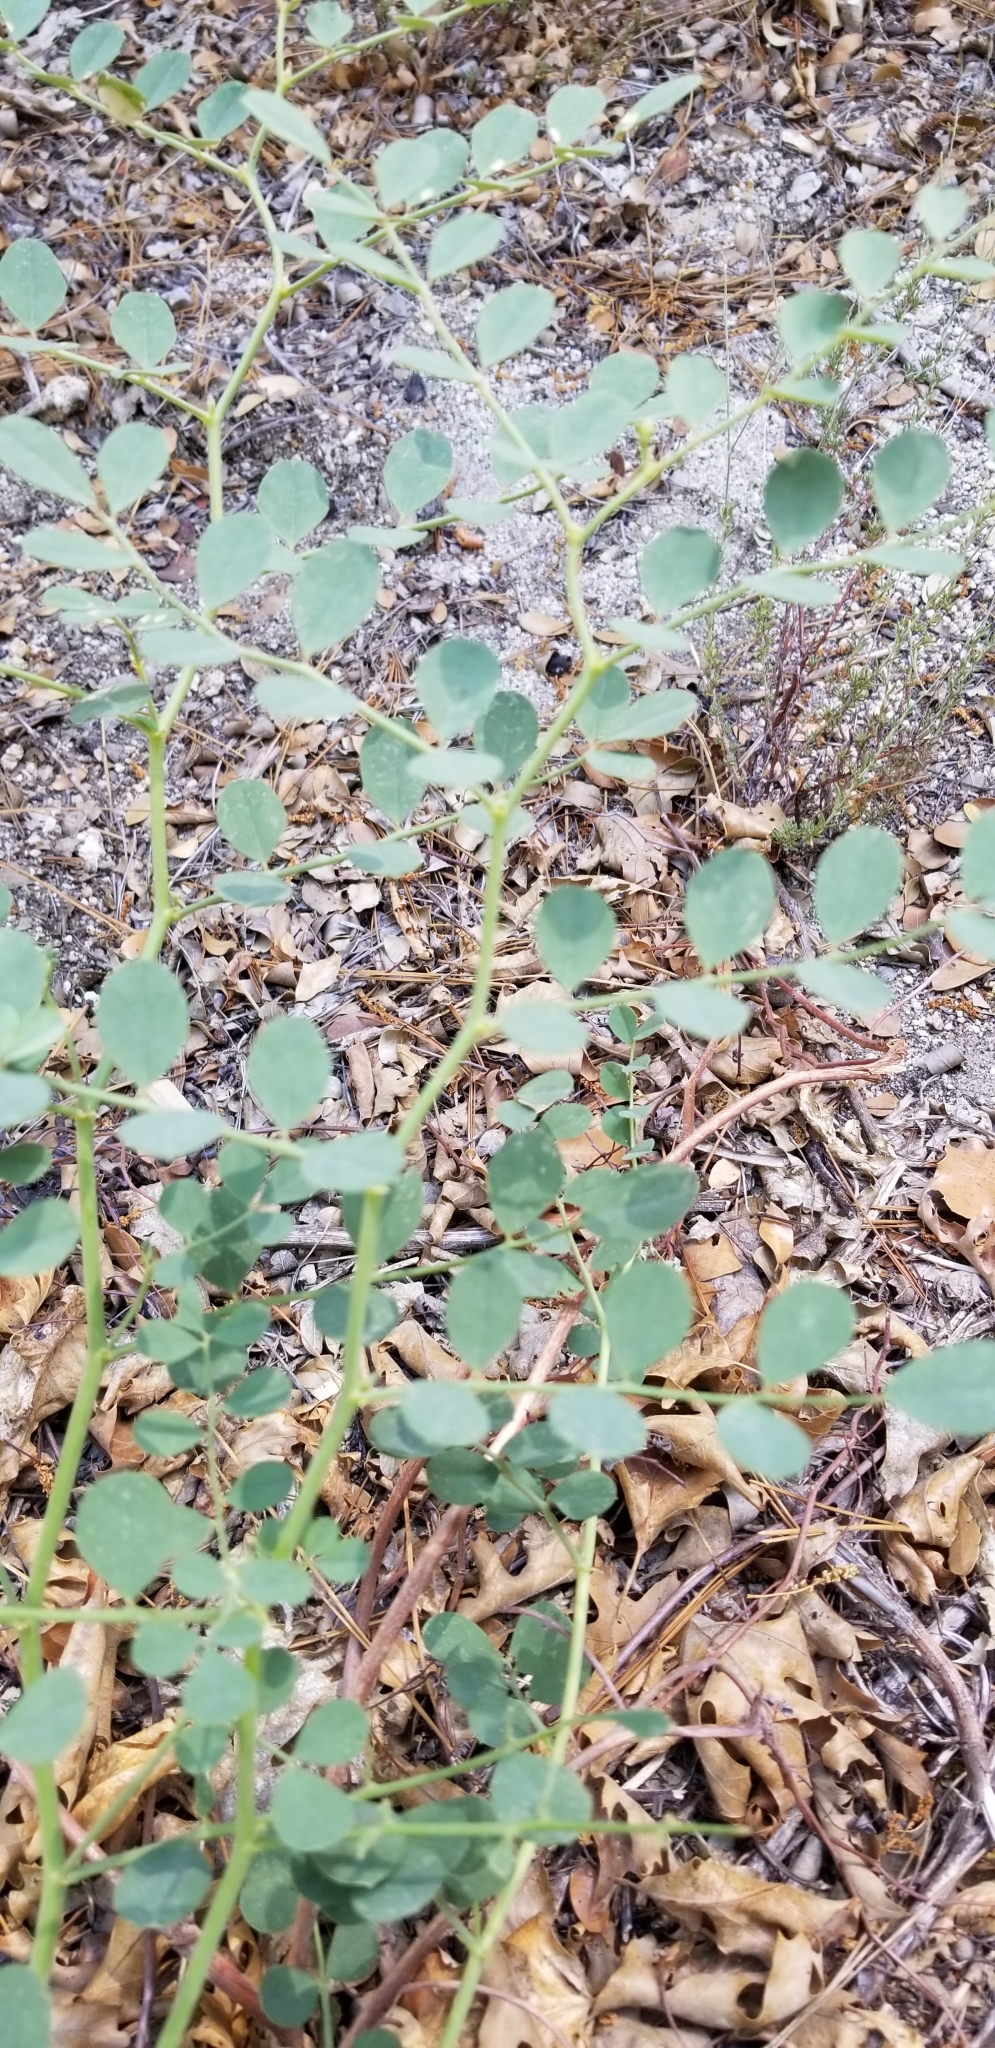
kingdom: Plantae
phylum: Tracheophyta
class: Magnoliopsida
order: Fabales
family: Fabaceae
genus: Hosackia
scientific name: Hosackia crassifolia
